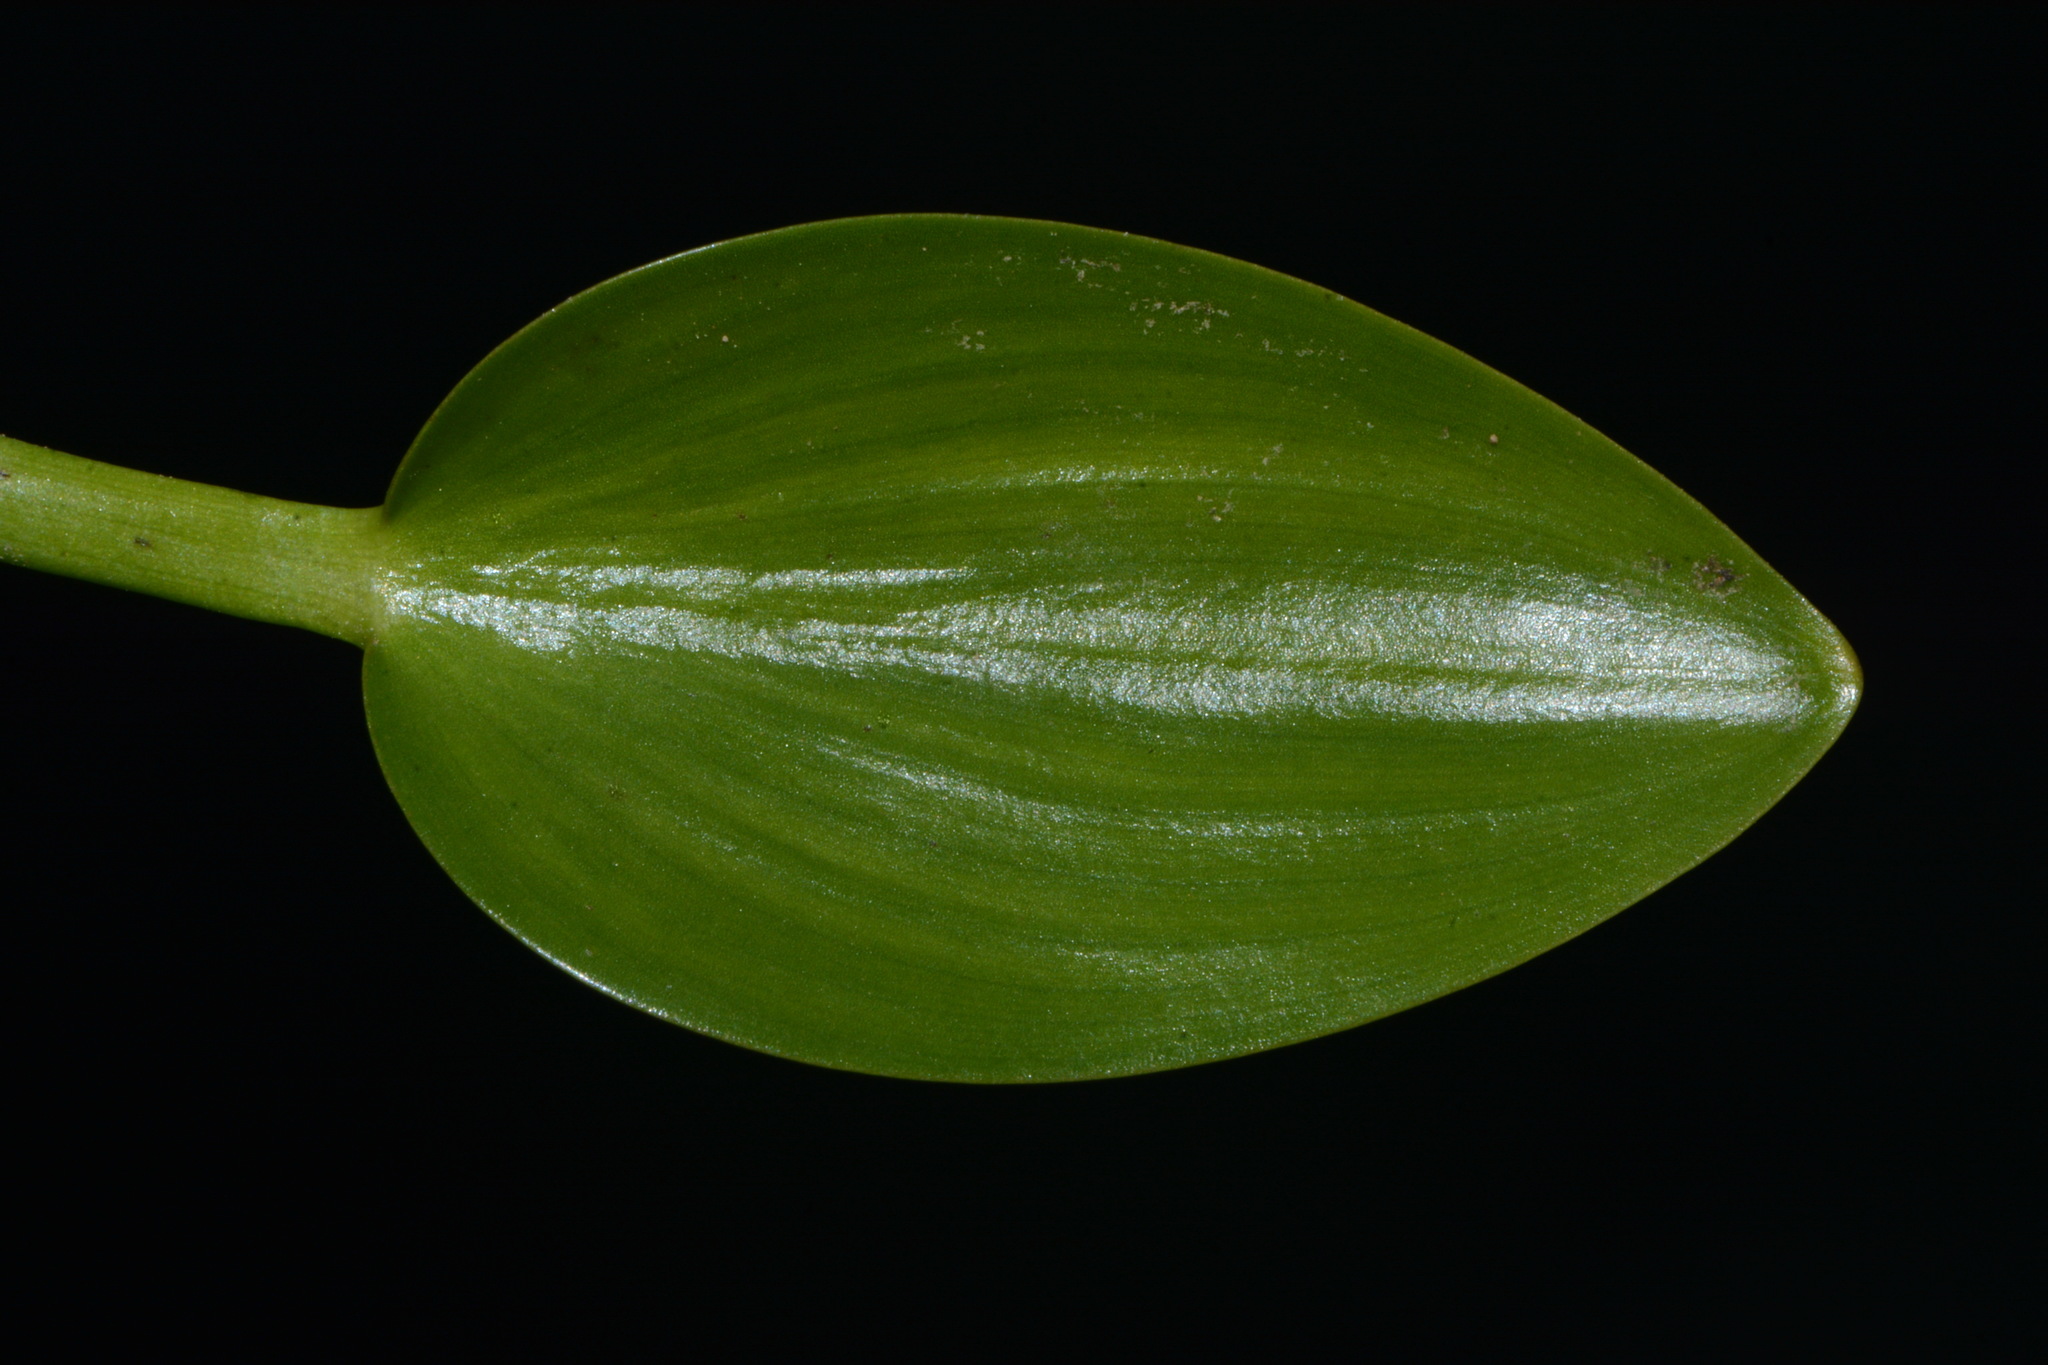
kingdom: Plantae
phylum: Tracheophyta
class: Liliopsida
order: Commelinales
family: Pontederiaceae
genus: Heteranthera
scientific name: Heteranthera limosa
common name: Blue mud-plantain
